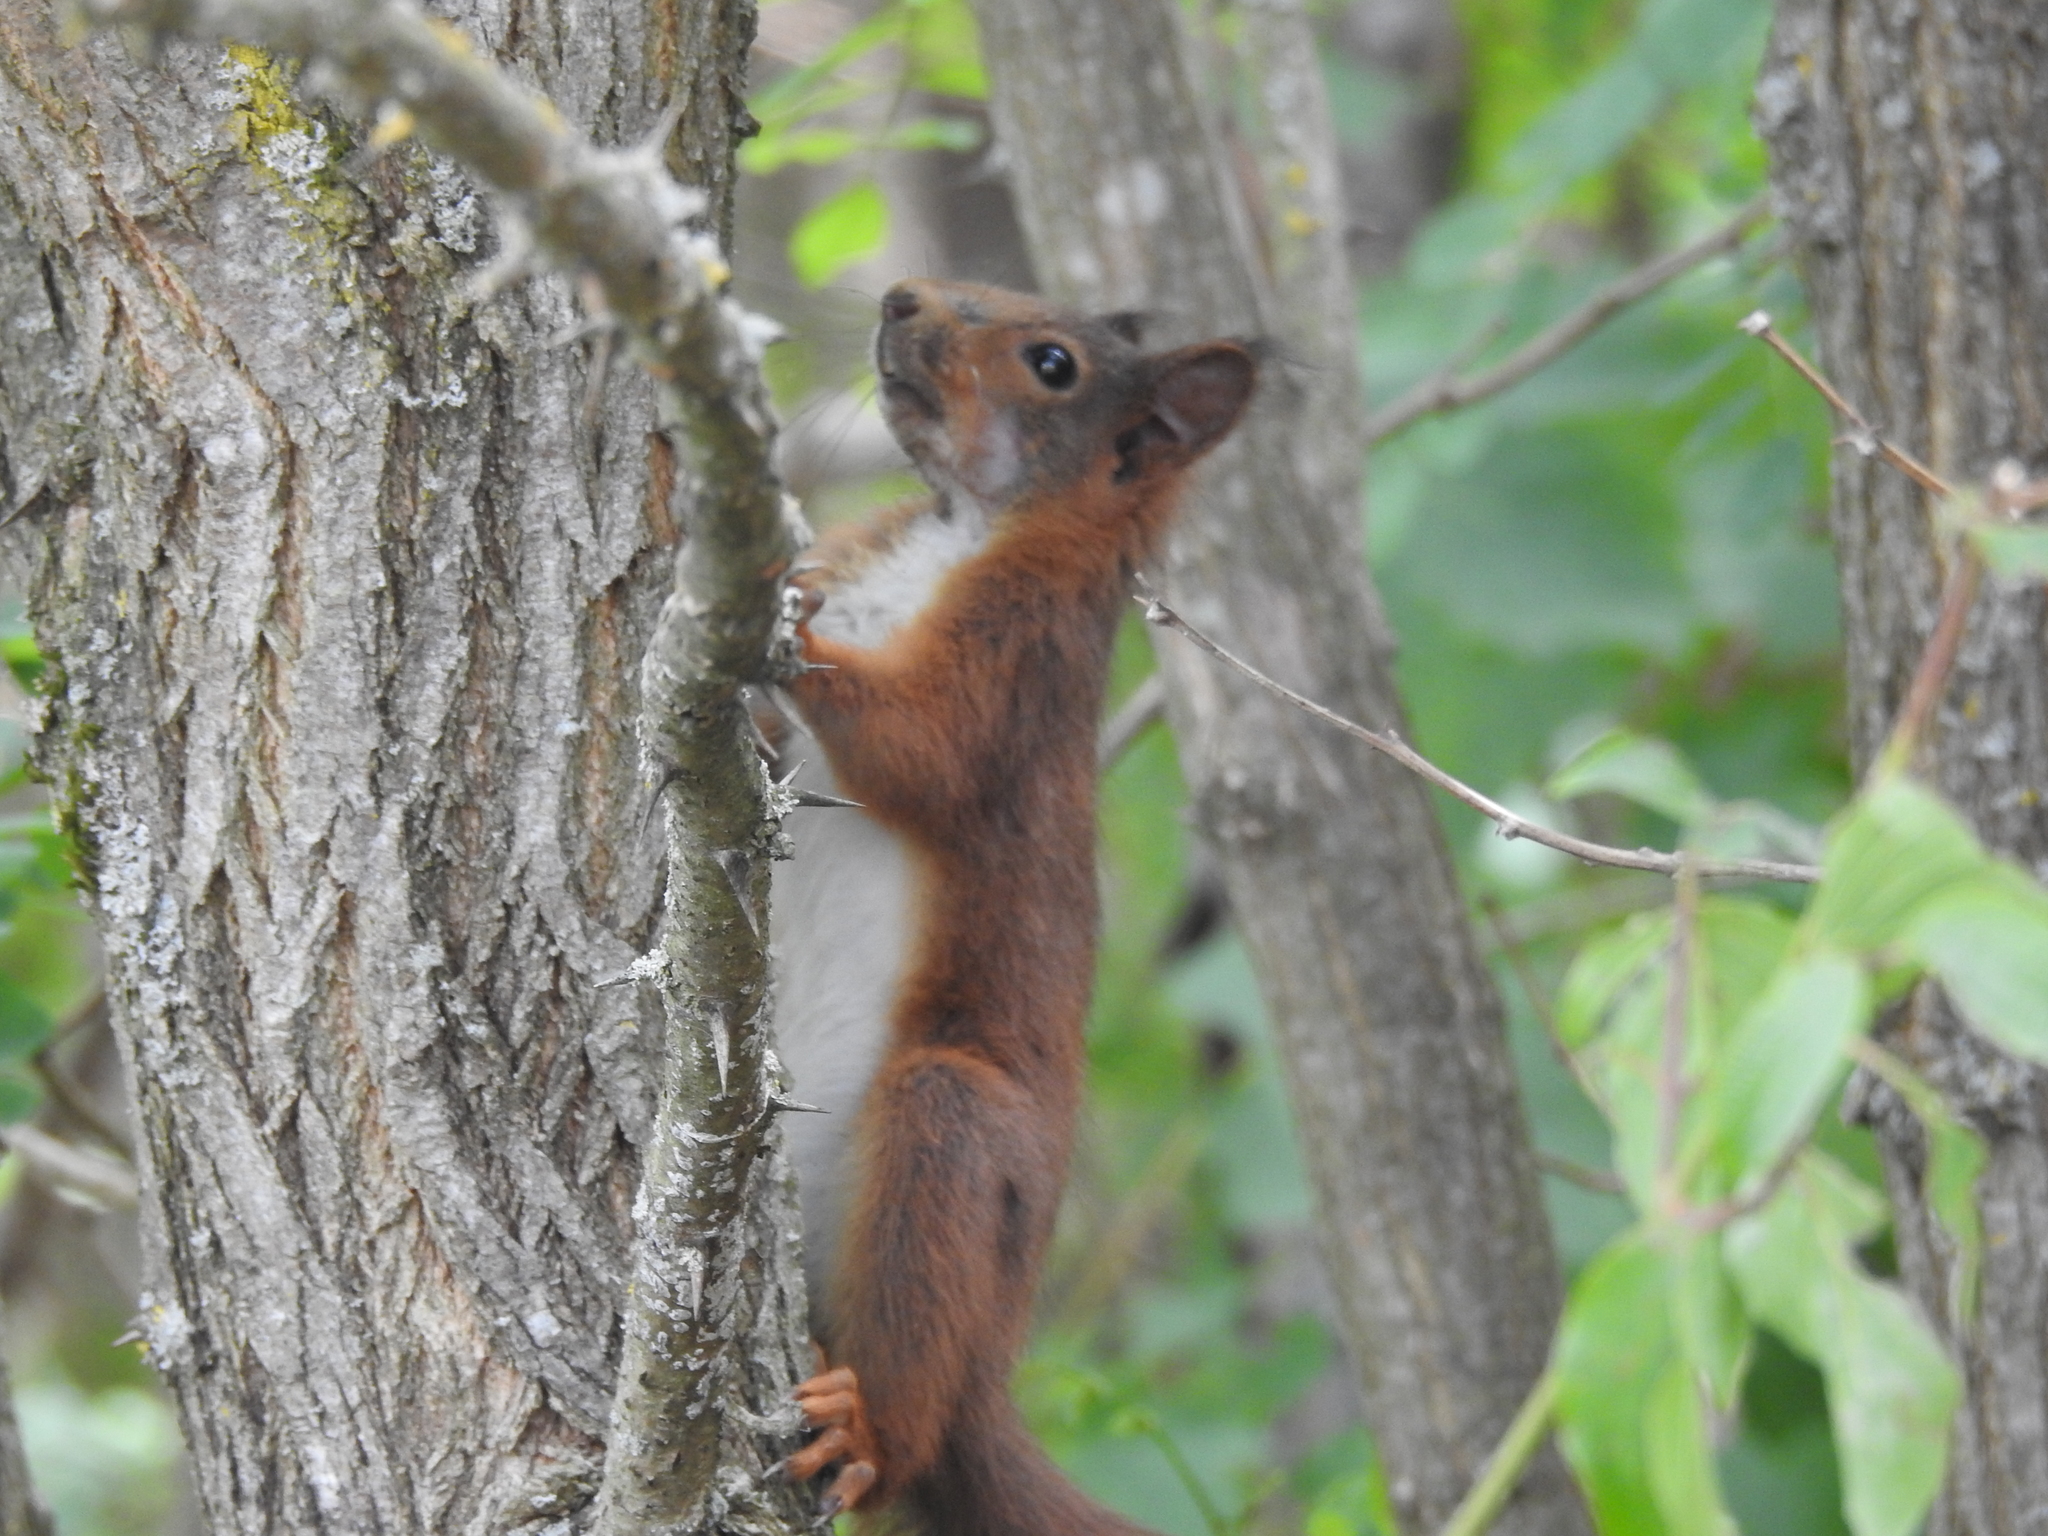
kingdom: Animalia
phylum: Chordata
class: Mammalia
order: Rodentia
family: Sciuridae
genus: Sciurus
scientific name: Sciurus vulgaris
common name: Eurasian red squirrel
